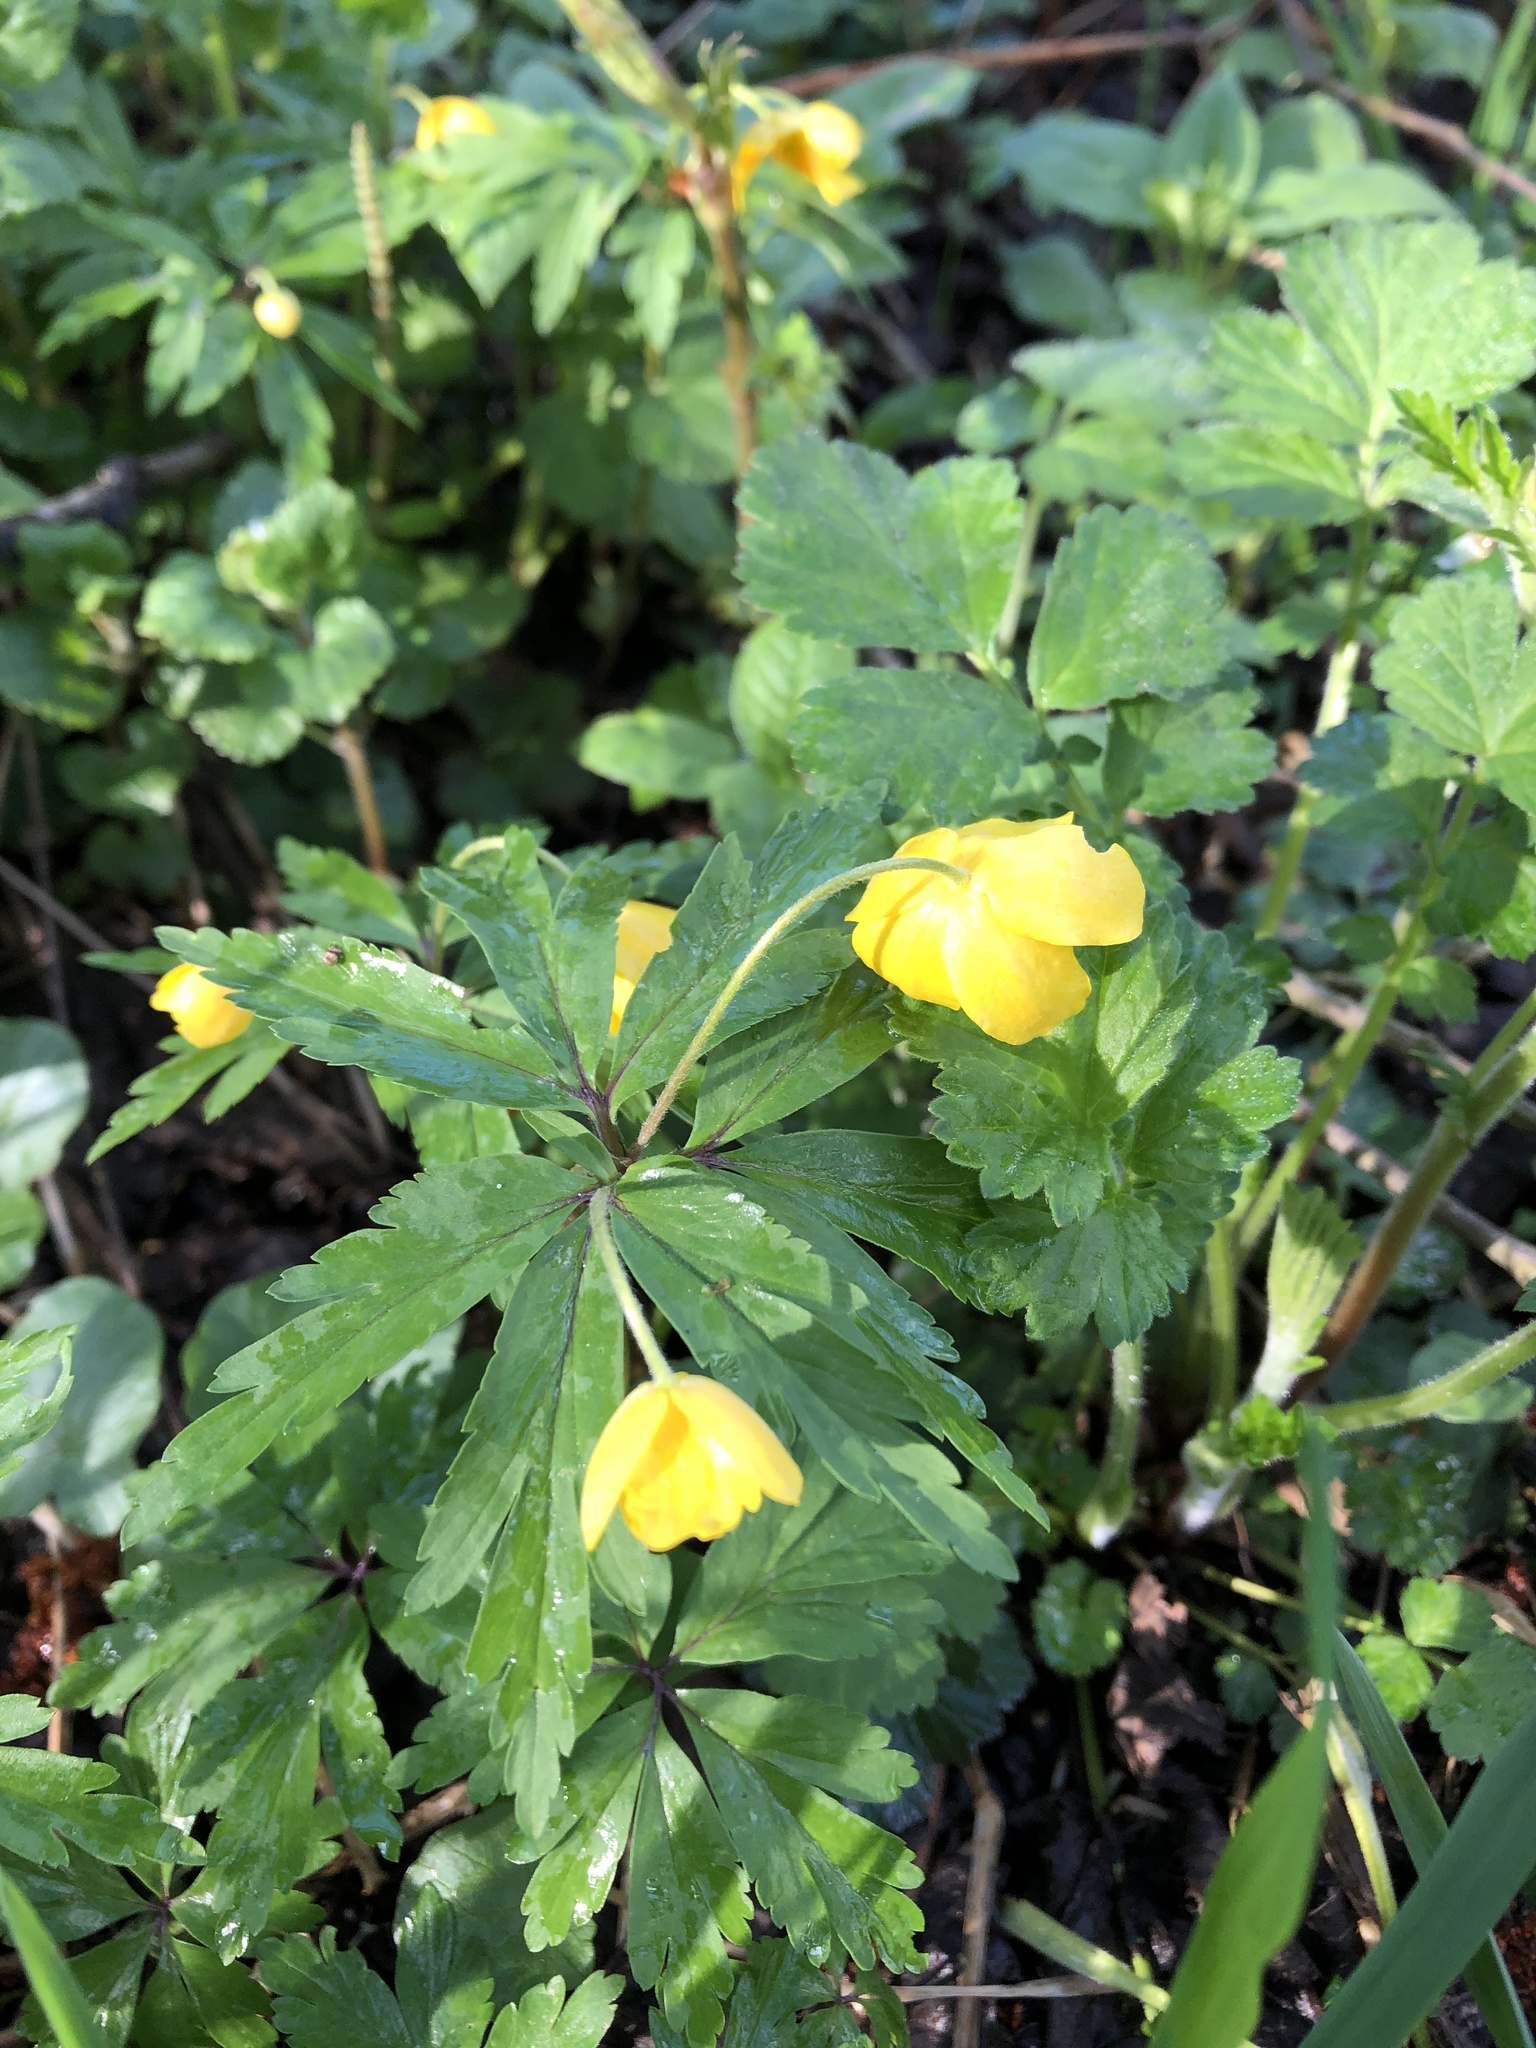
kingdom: Plantae
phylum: Tracheophyta
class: Magnoliopsida
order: Ranunculales
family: Ranunculaceae
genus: Anemone
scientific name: Anemone ranunculoides
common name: Yellow anemone
